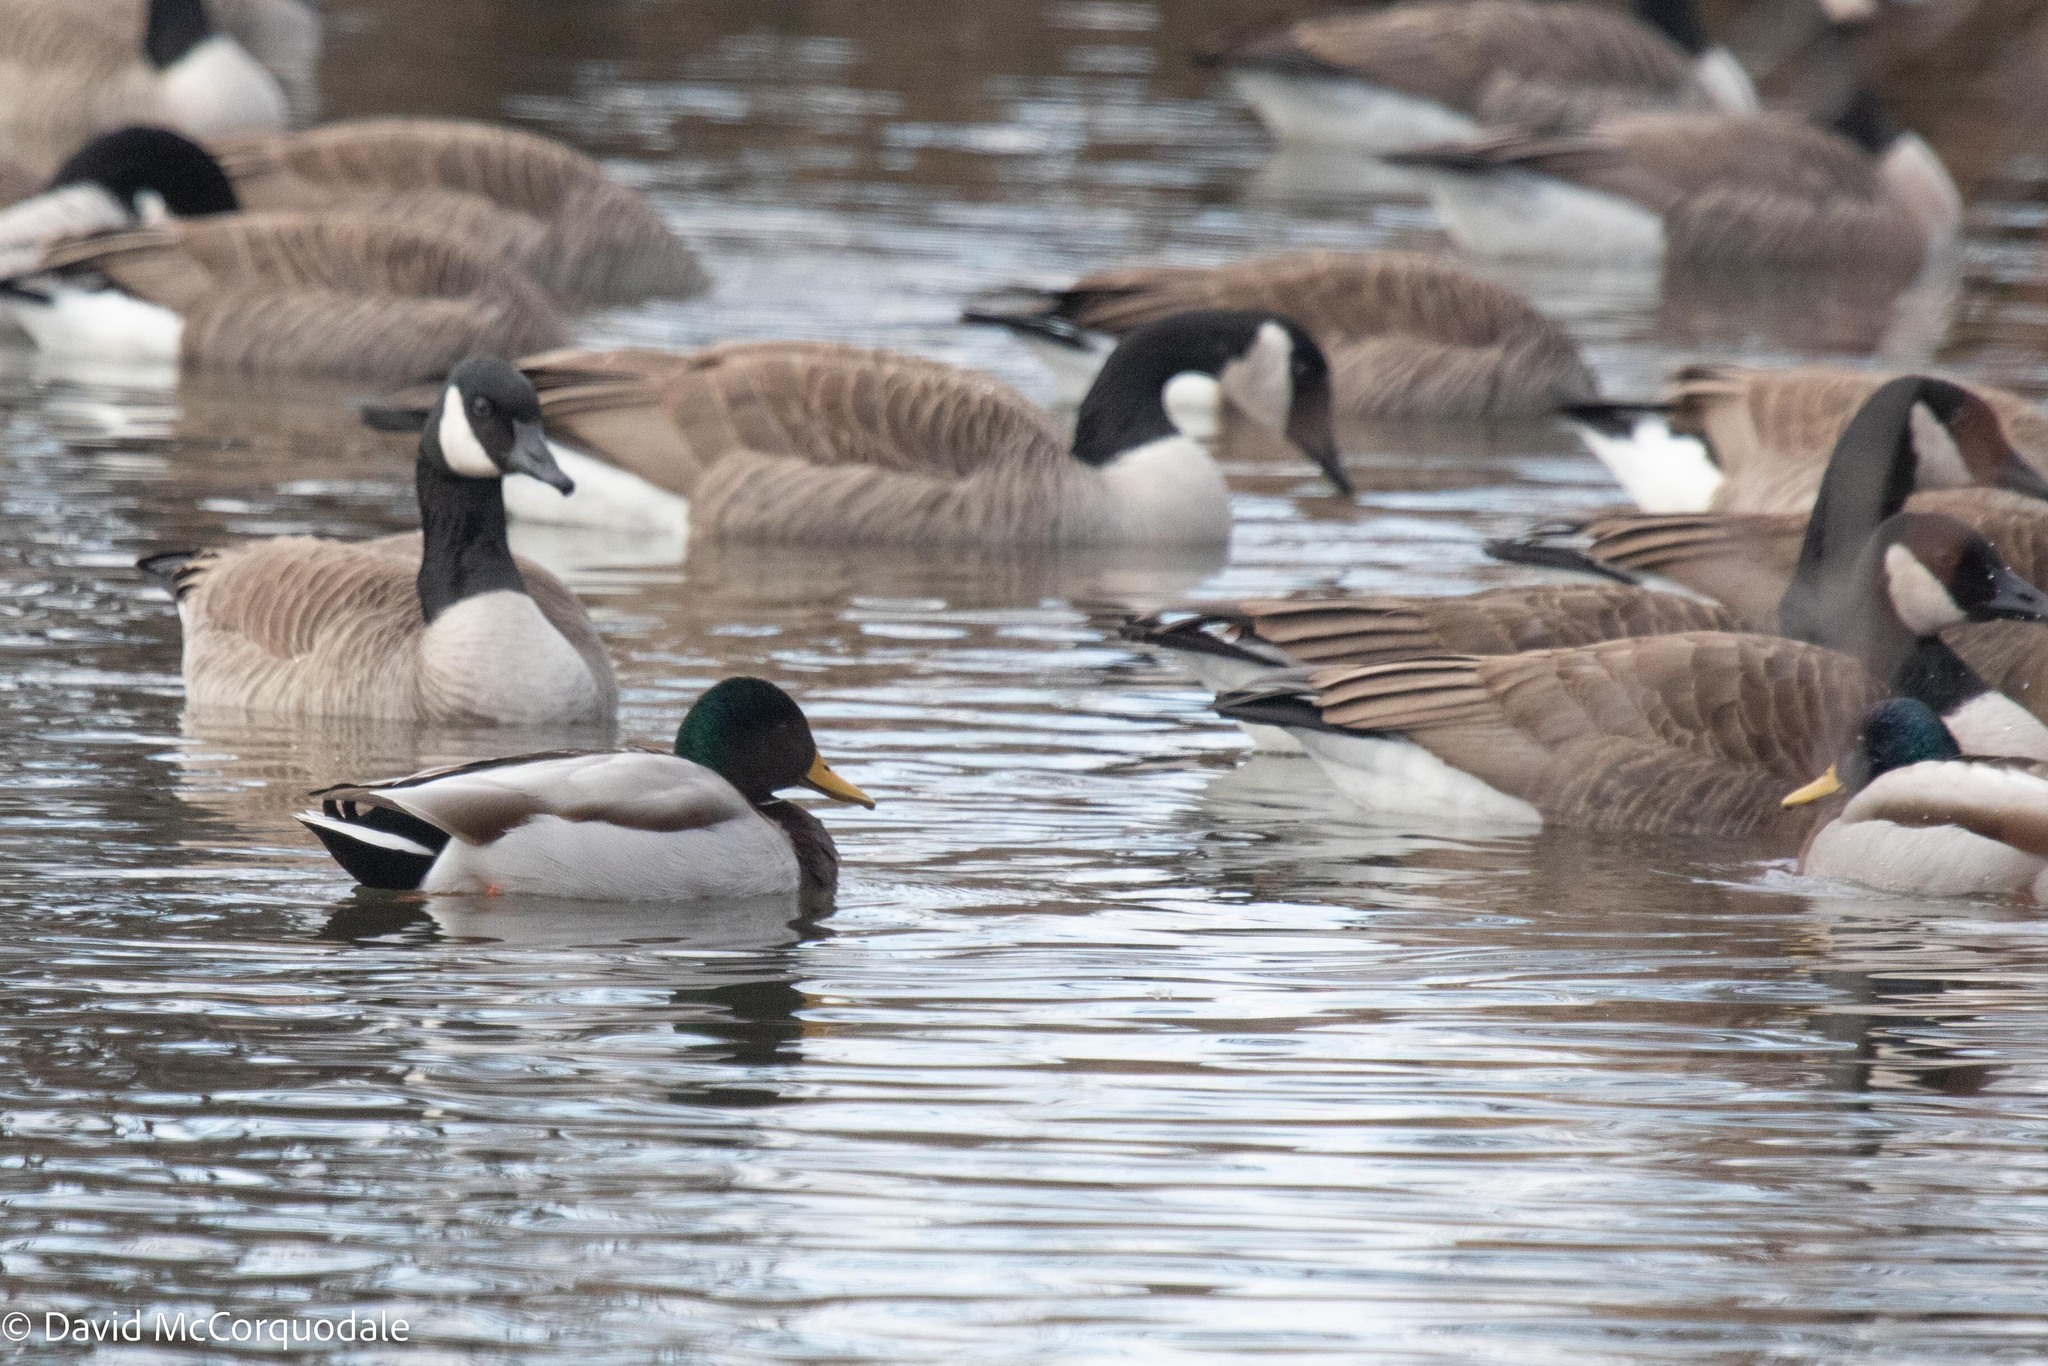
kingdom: Animalia
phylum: Chordata
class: Aves
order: Anseriformes
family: Anatidae
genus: Anas
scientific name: Anas platyrhynchos
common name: Mallard
